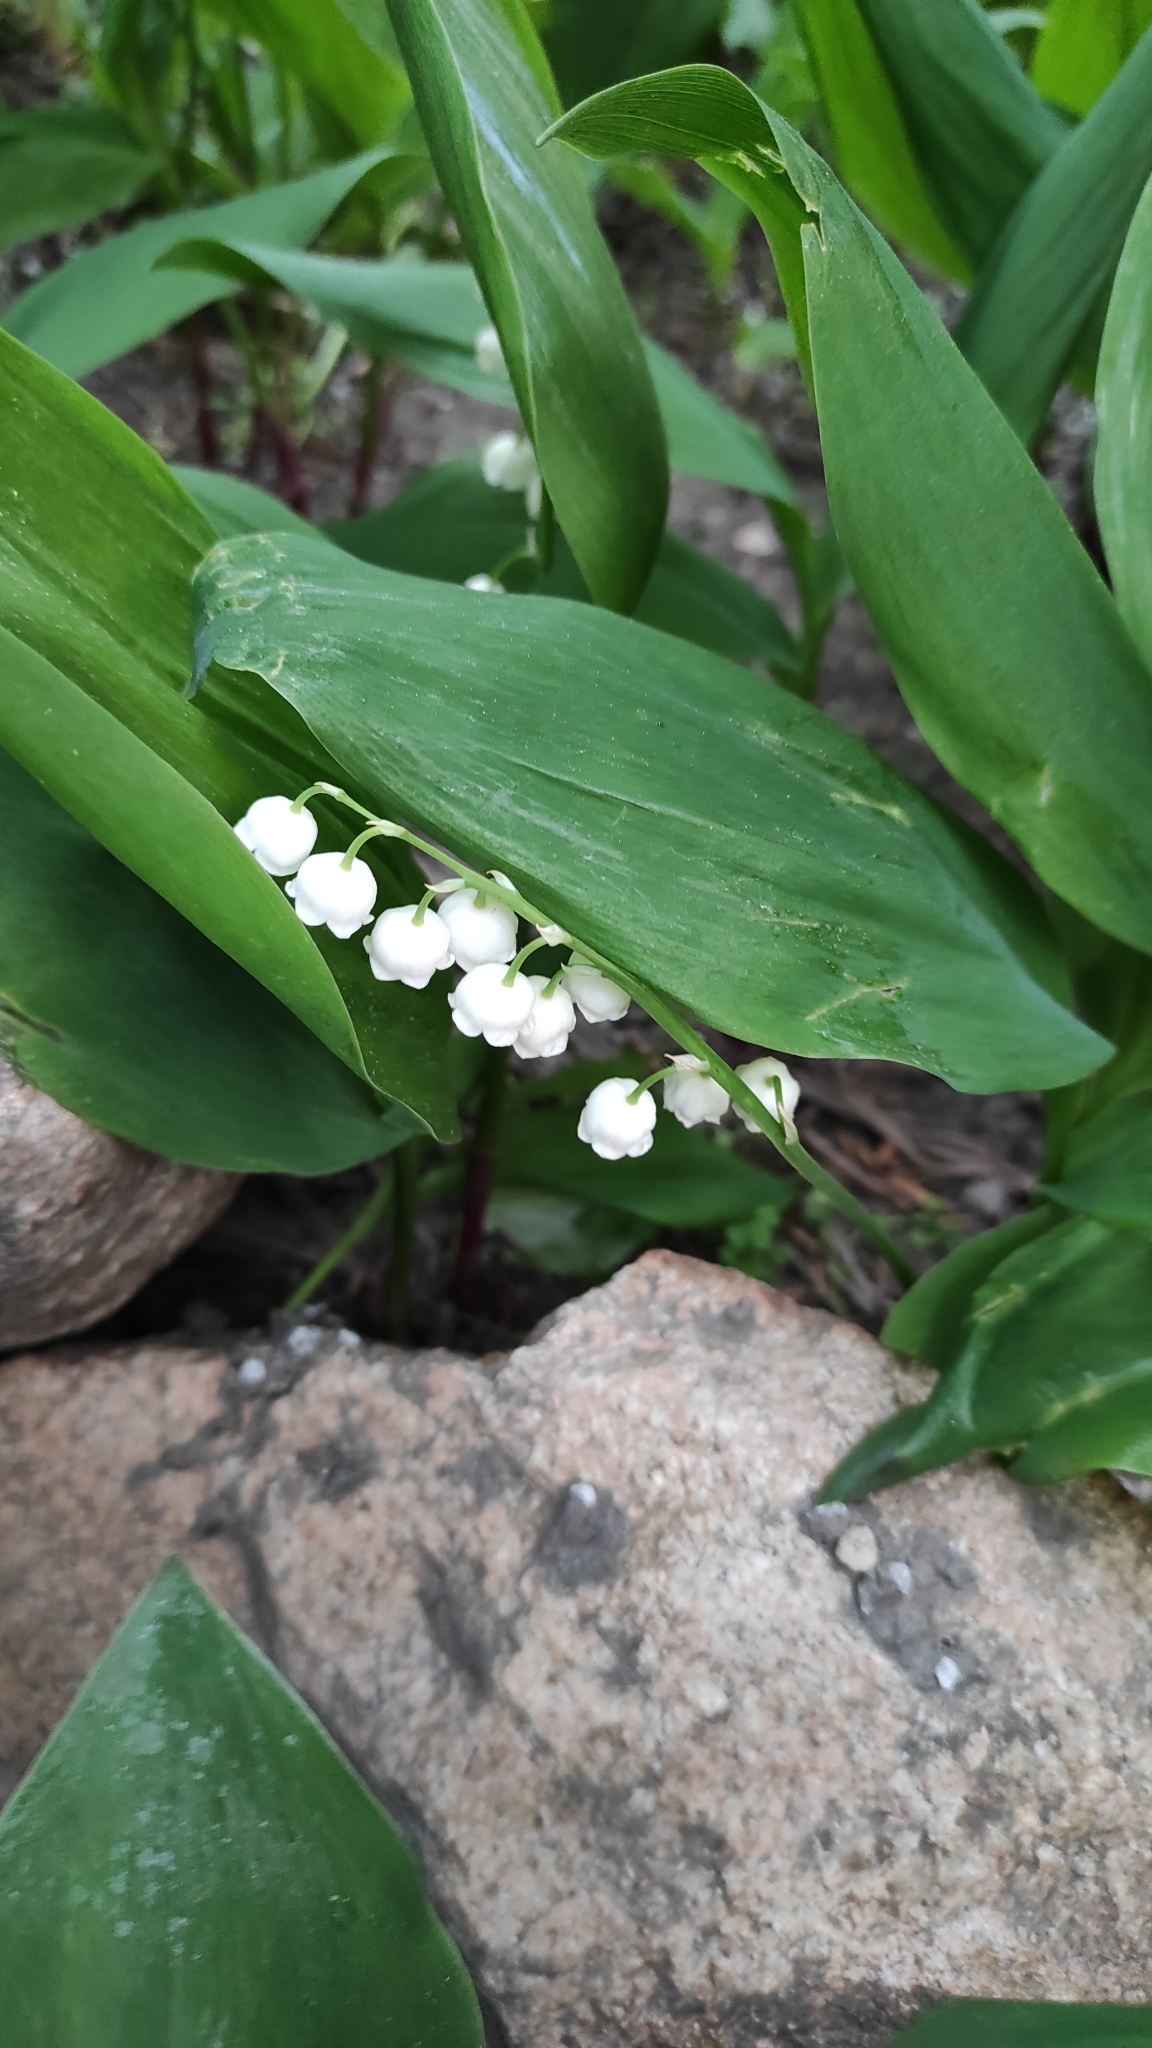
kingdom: Plantae
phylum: Tracheophyta
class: Liliopsida
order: Asparagales
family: Asparagaceae
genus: Convallaria
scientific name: Convallaria majalis
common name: Lily-of-the-valley
